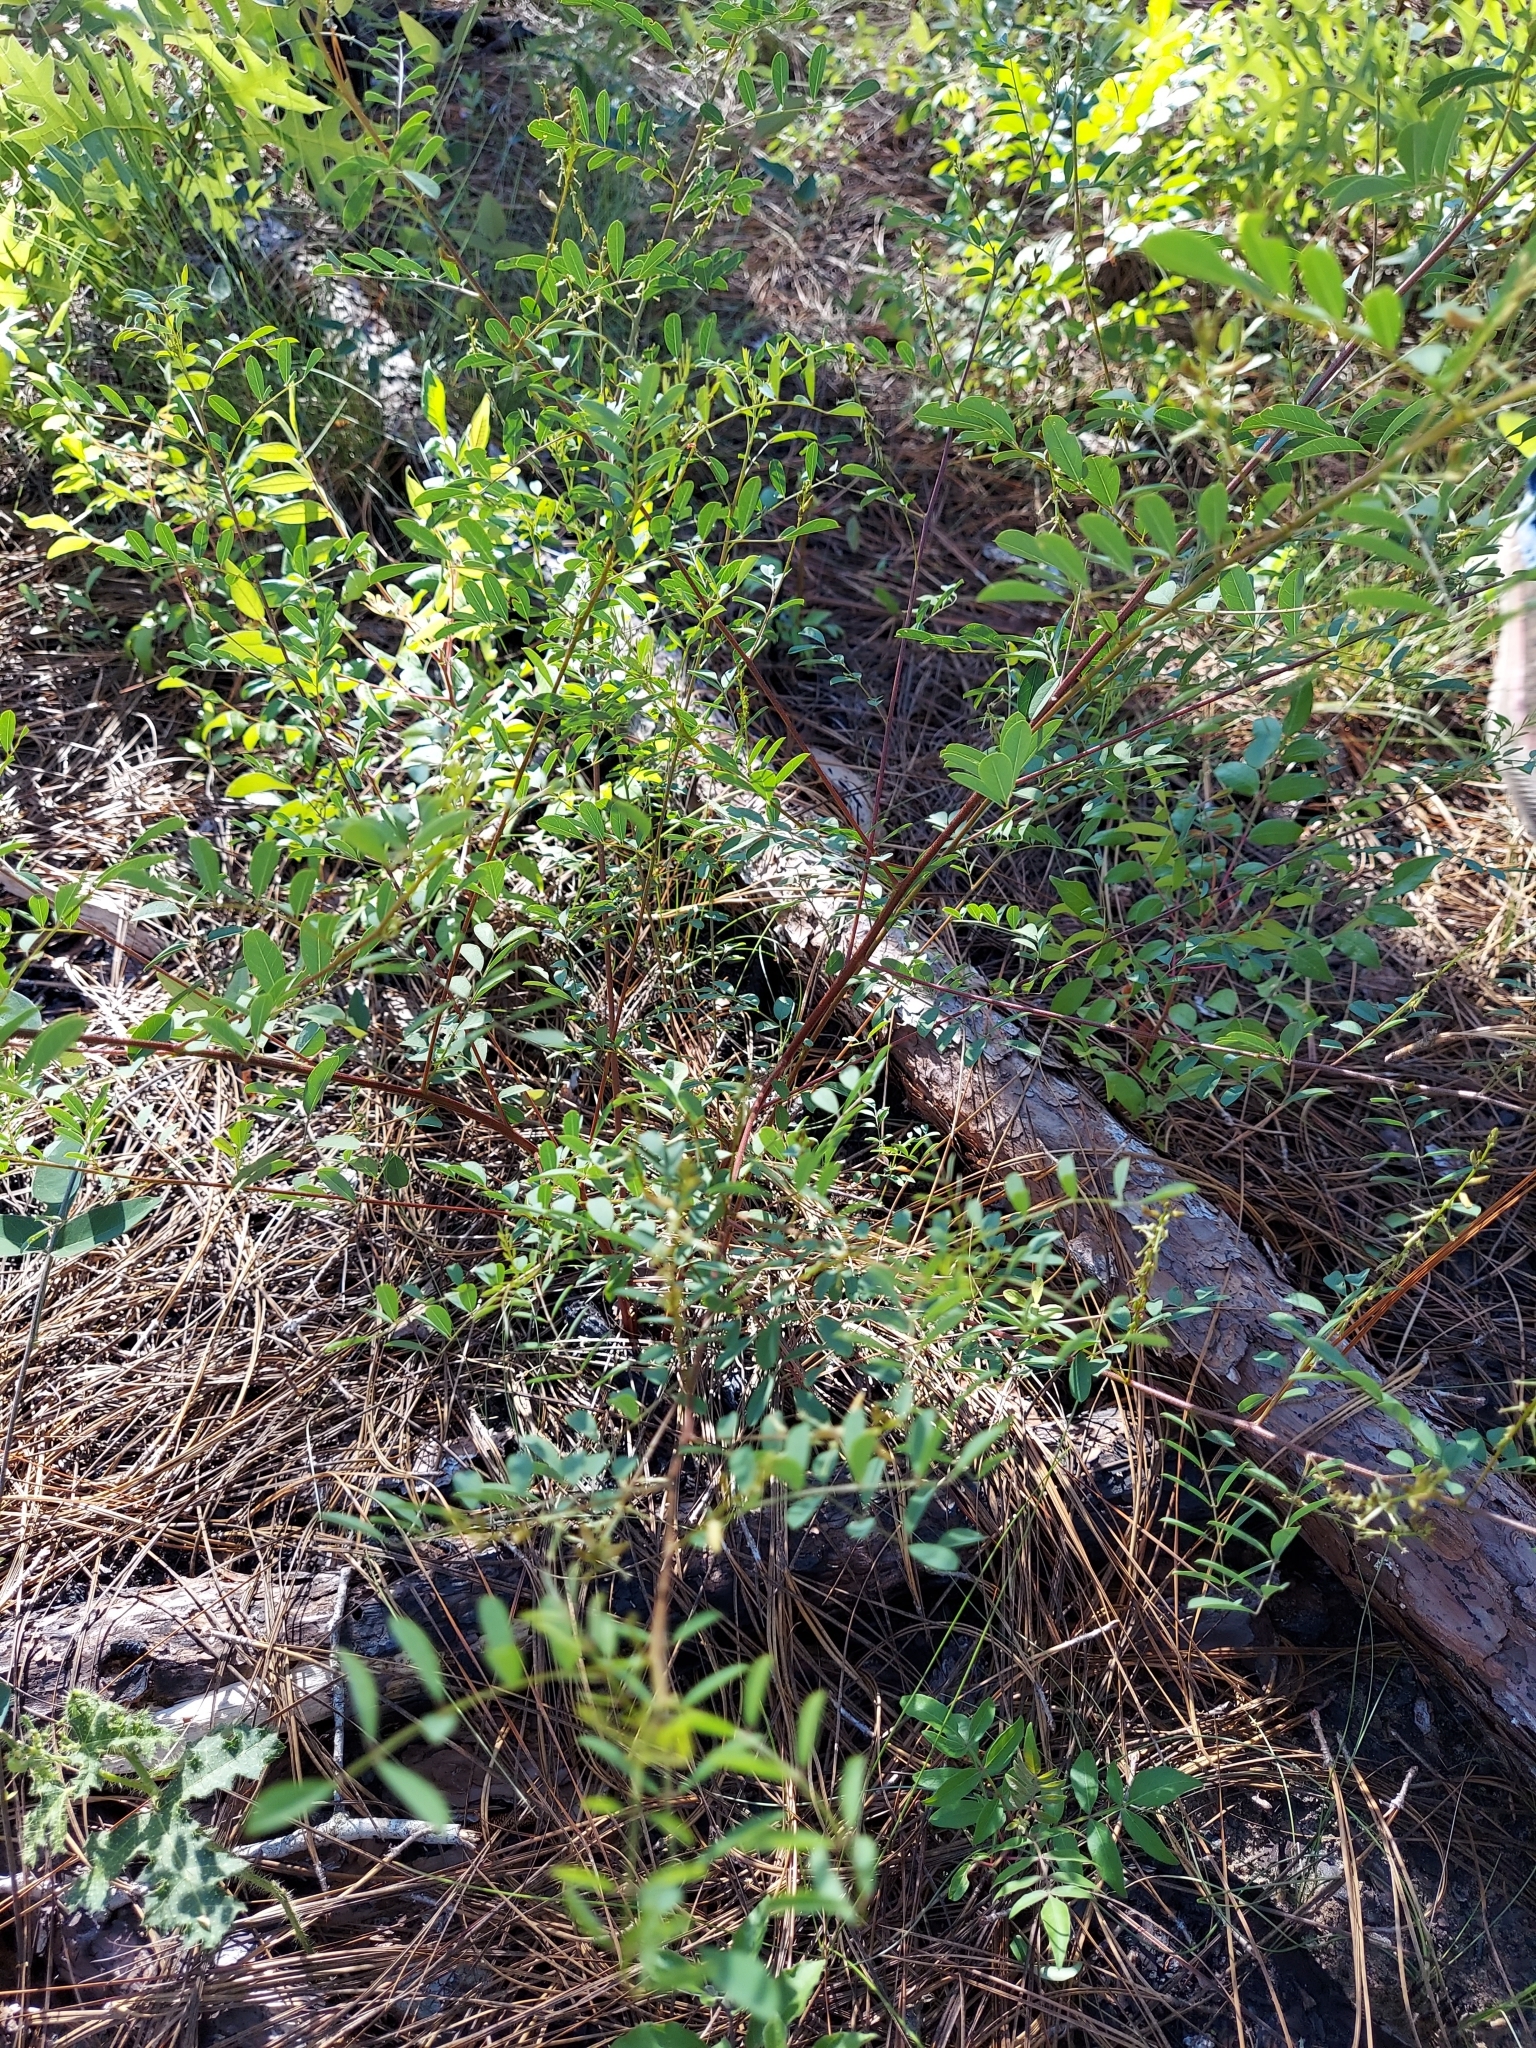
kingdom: Plantae
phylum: Tracheophyta
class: Magnoliopsida
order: Fabales
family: Fabaceae
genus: Indigofera
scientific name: Indigofera caroliniana
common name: Wild indigo
